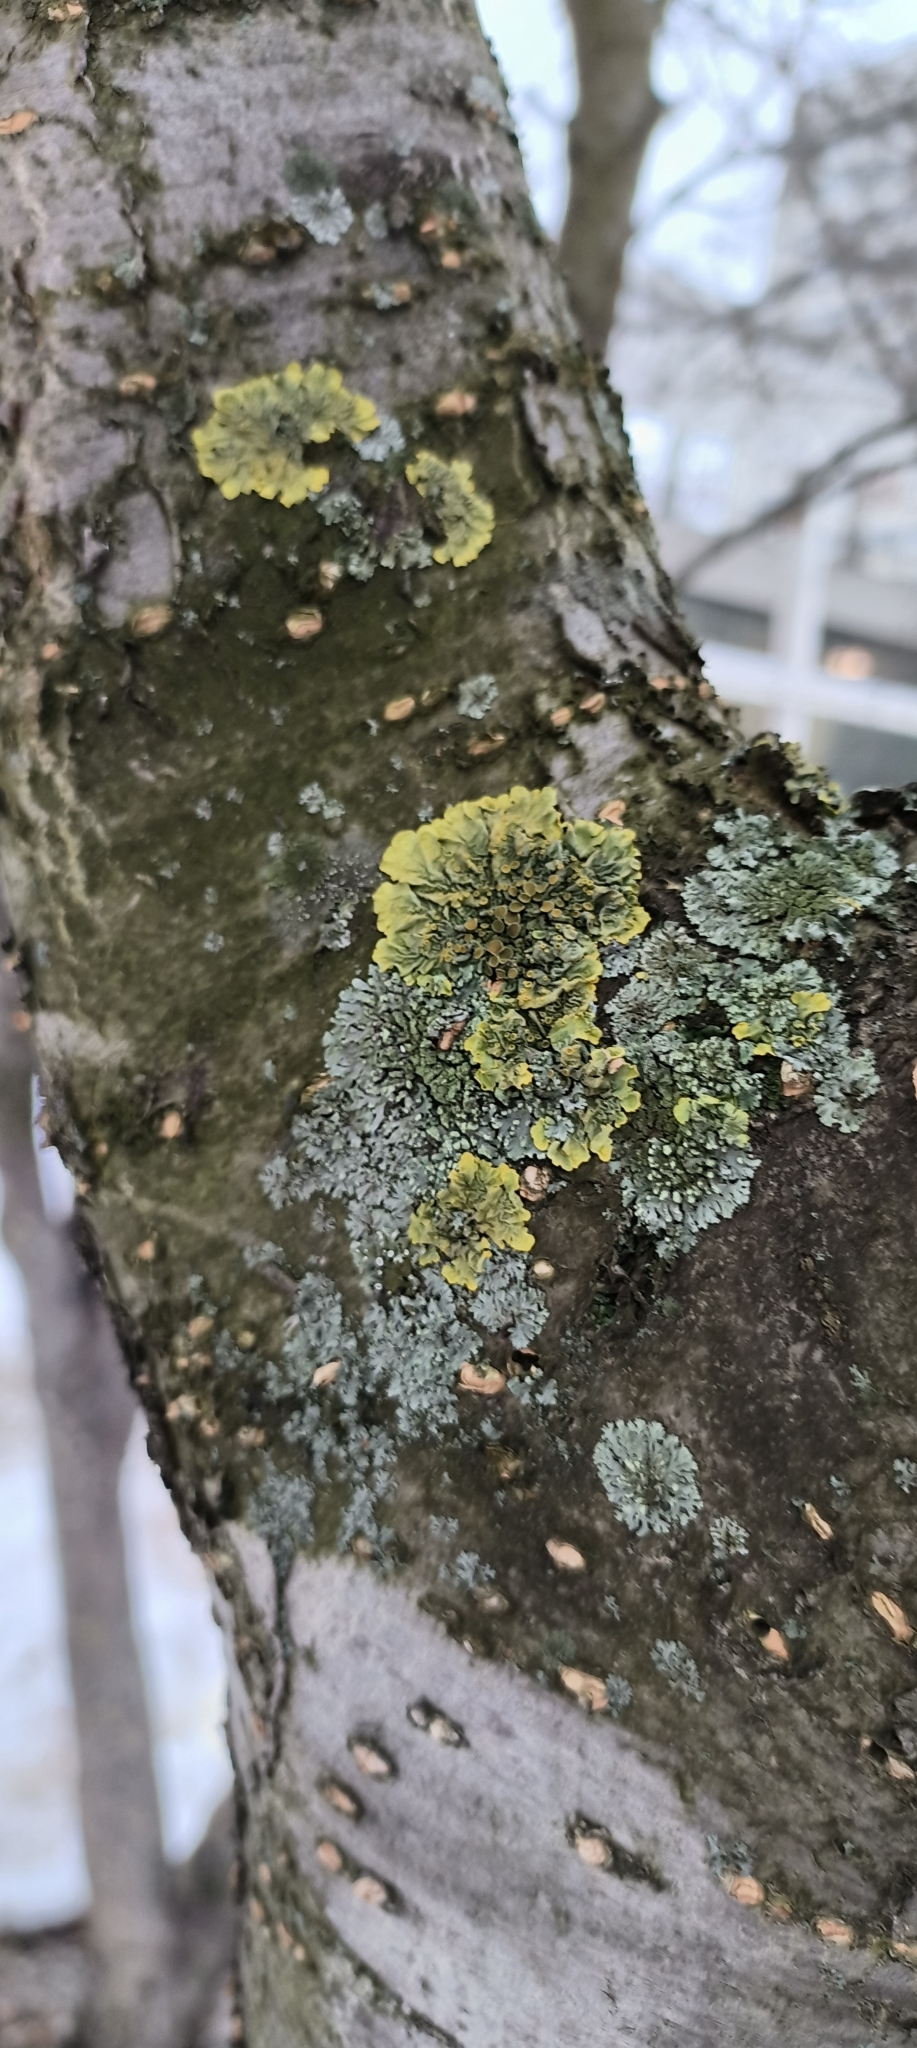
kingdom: Fungi
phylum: Ascomycota
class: Lecanoromycetes
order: Teloschistales
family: Teloschistaceae
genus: Xanthoria
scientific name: Xanthoria parietina
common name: Common orange lichen
